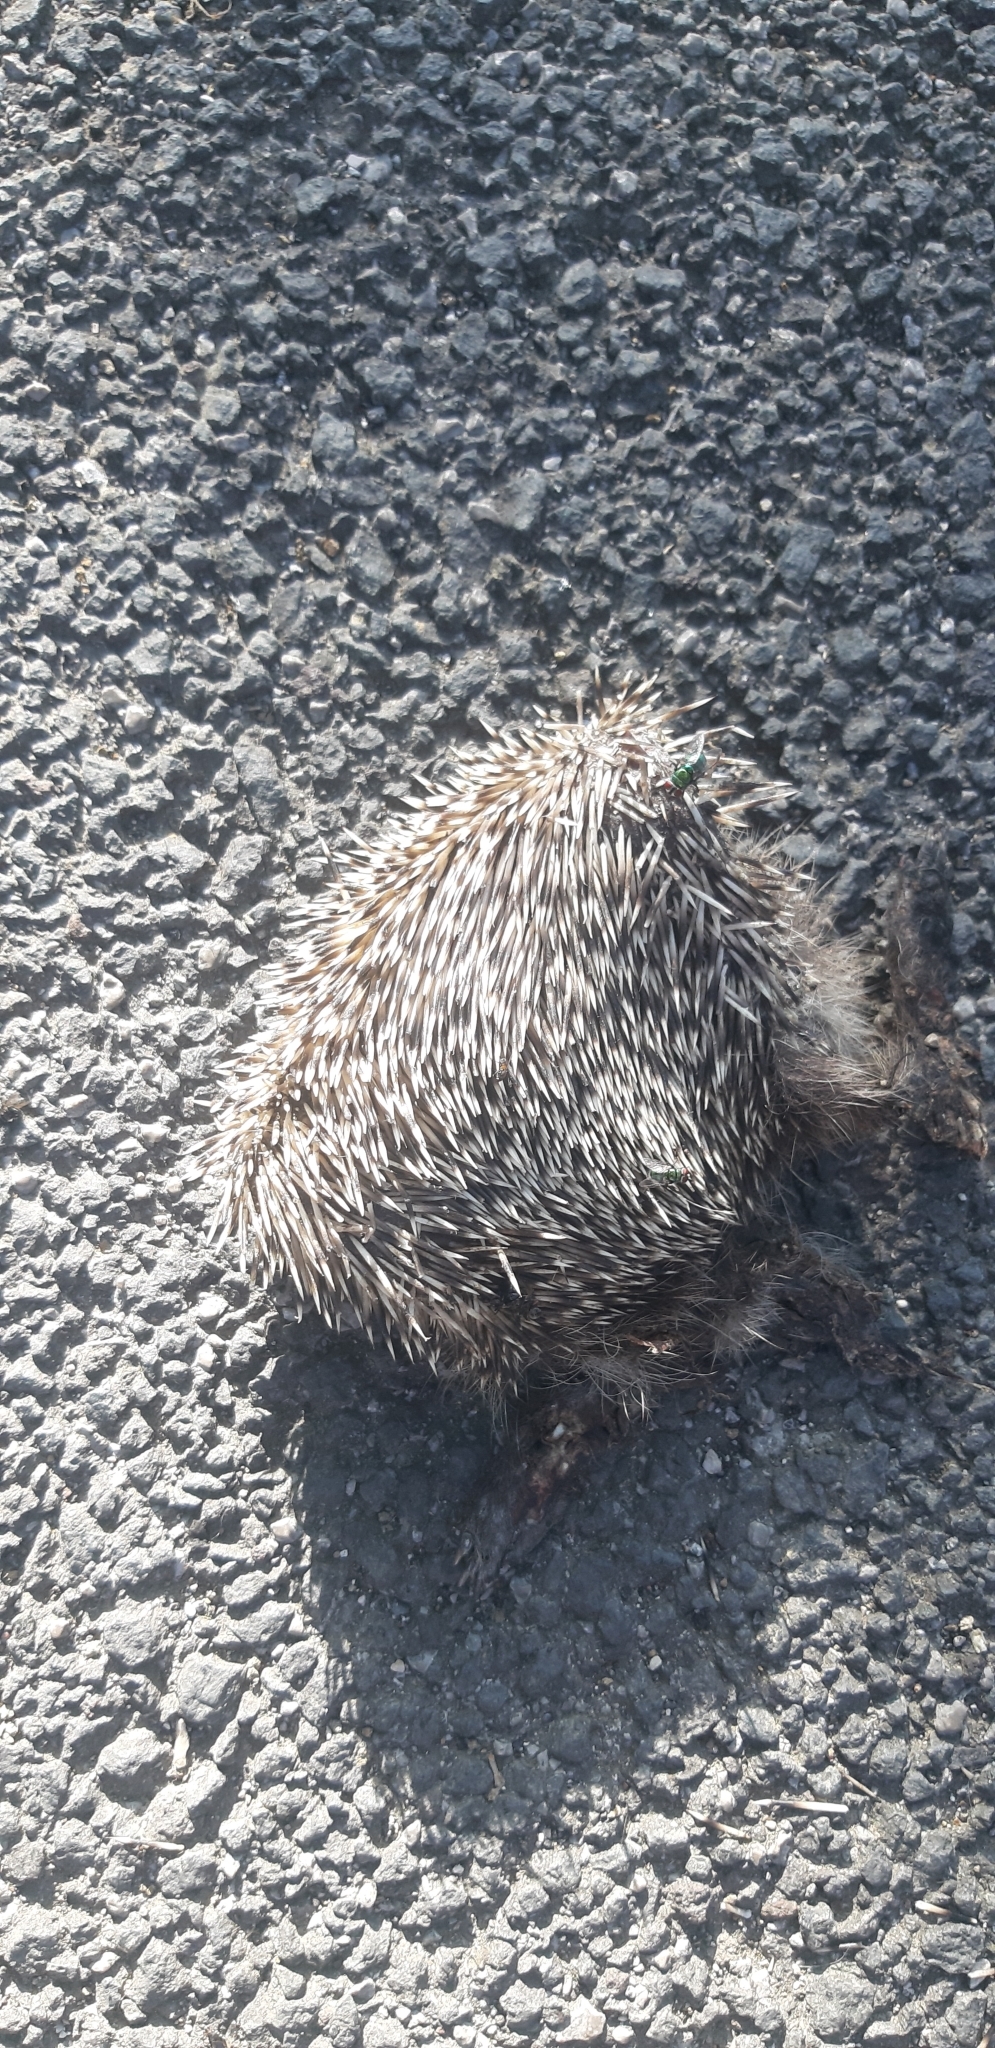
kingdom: Animalia
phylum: Chordata
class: Mammalia
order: Erinaceomorpha
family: Erinaceidae
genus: Erinaceus
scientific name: Erinaceus europaeus
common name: West european hedgehog
